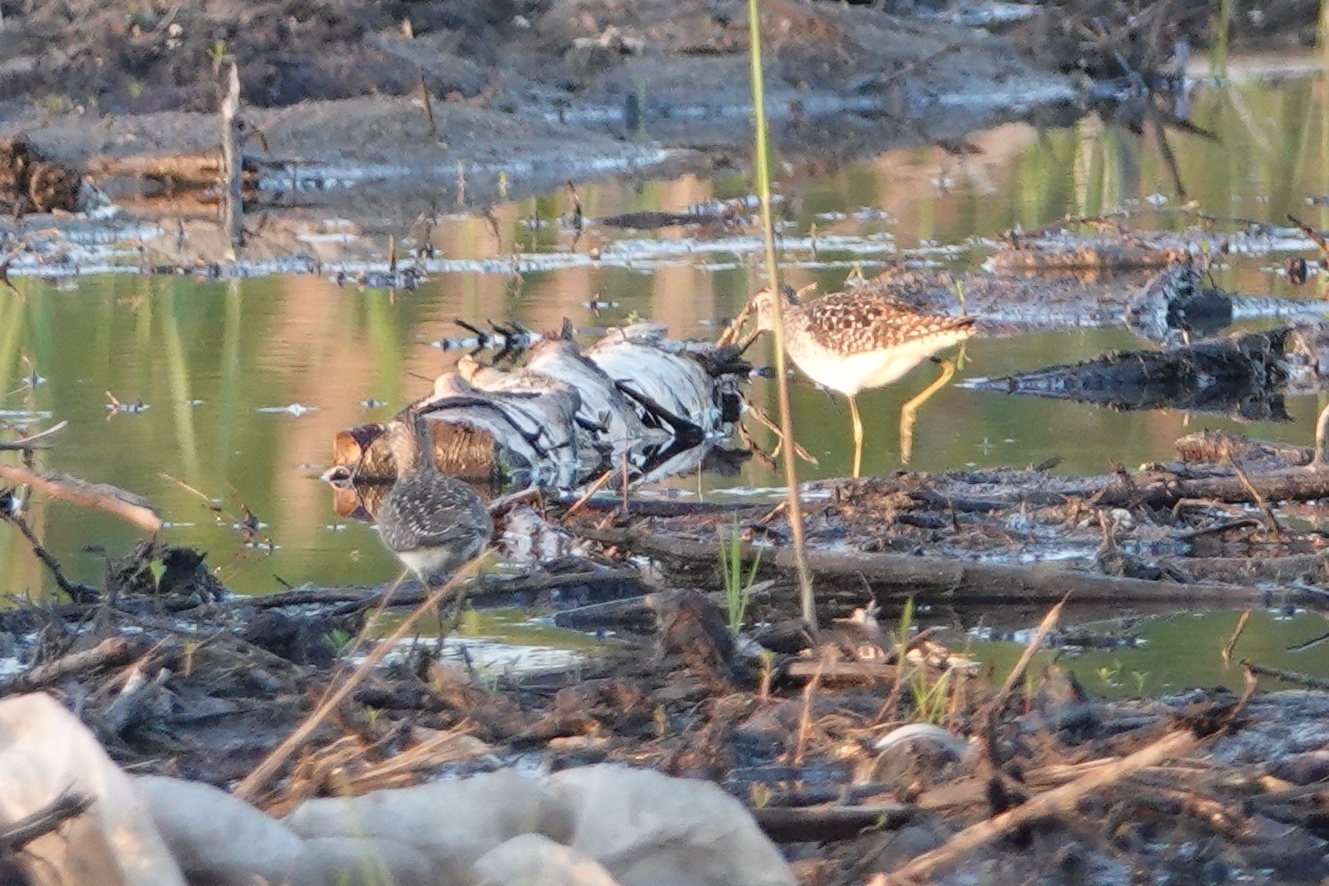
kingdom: Animalia
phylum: Chordata
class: Aves
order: Charadriiformes
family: Scolopacidae
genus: Tringa
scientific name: Tringa glareola
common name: Wood sandpiper
